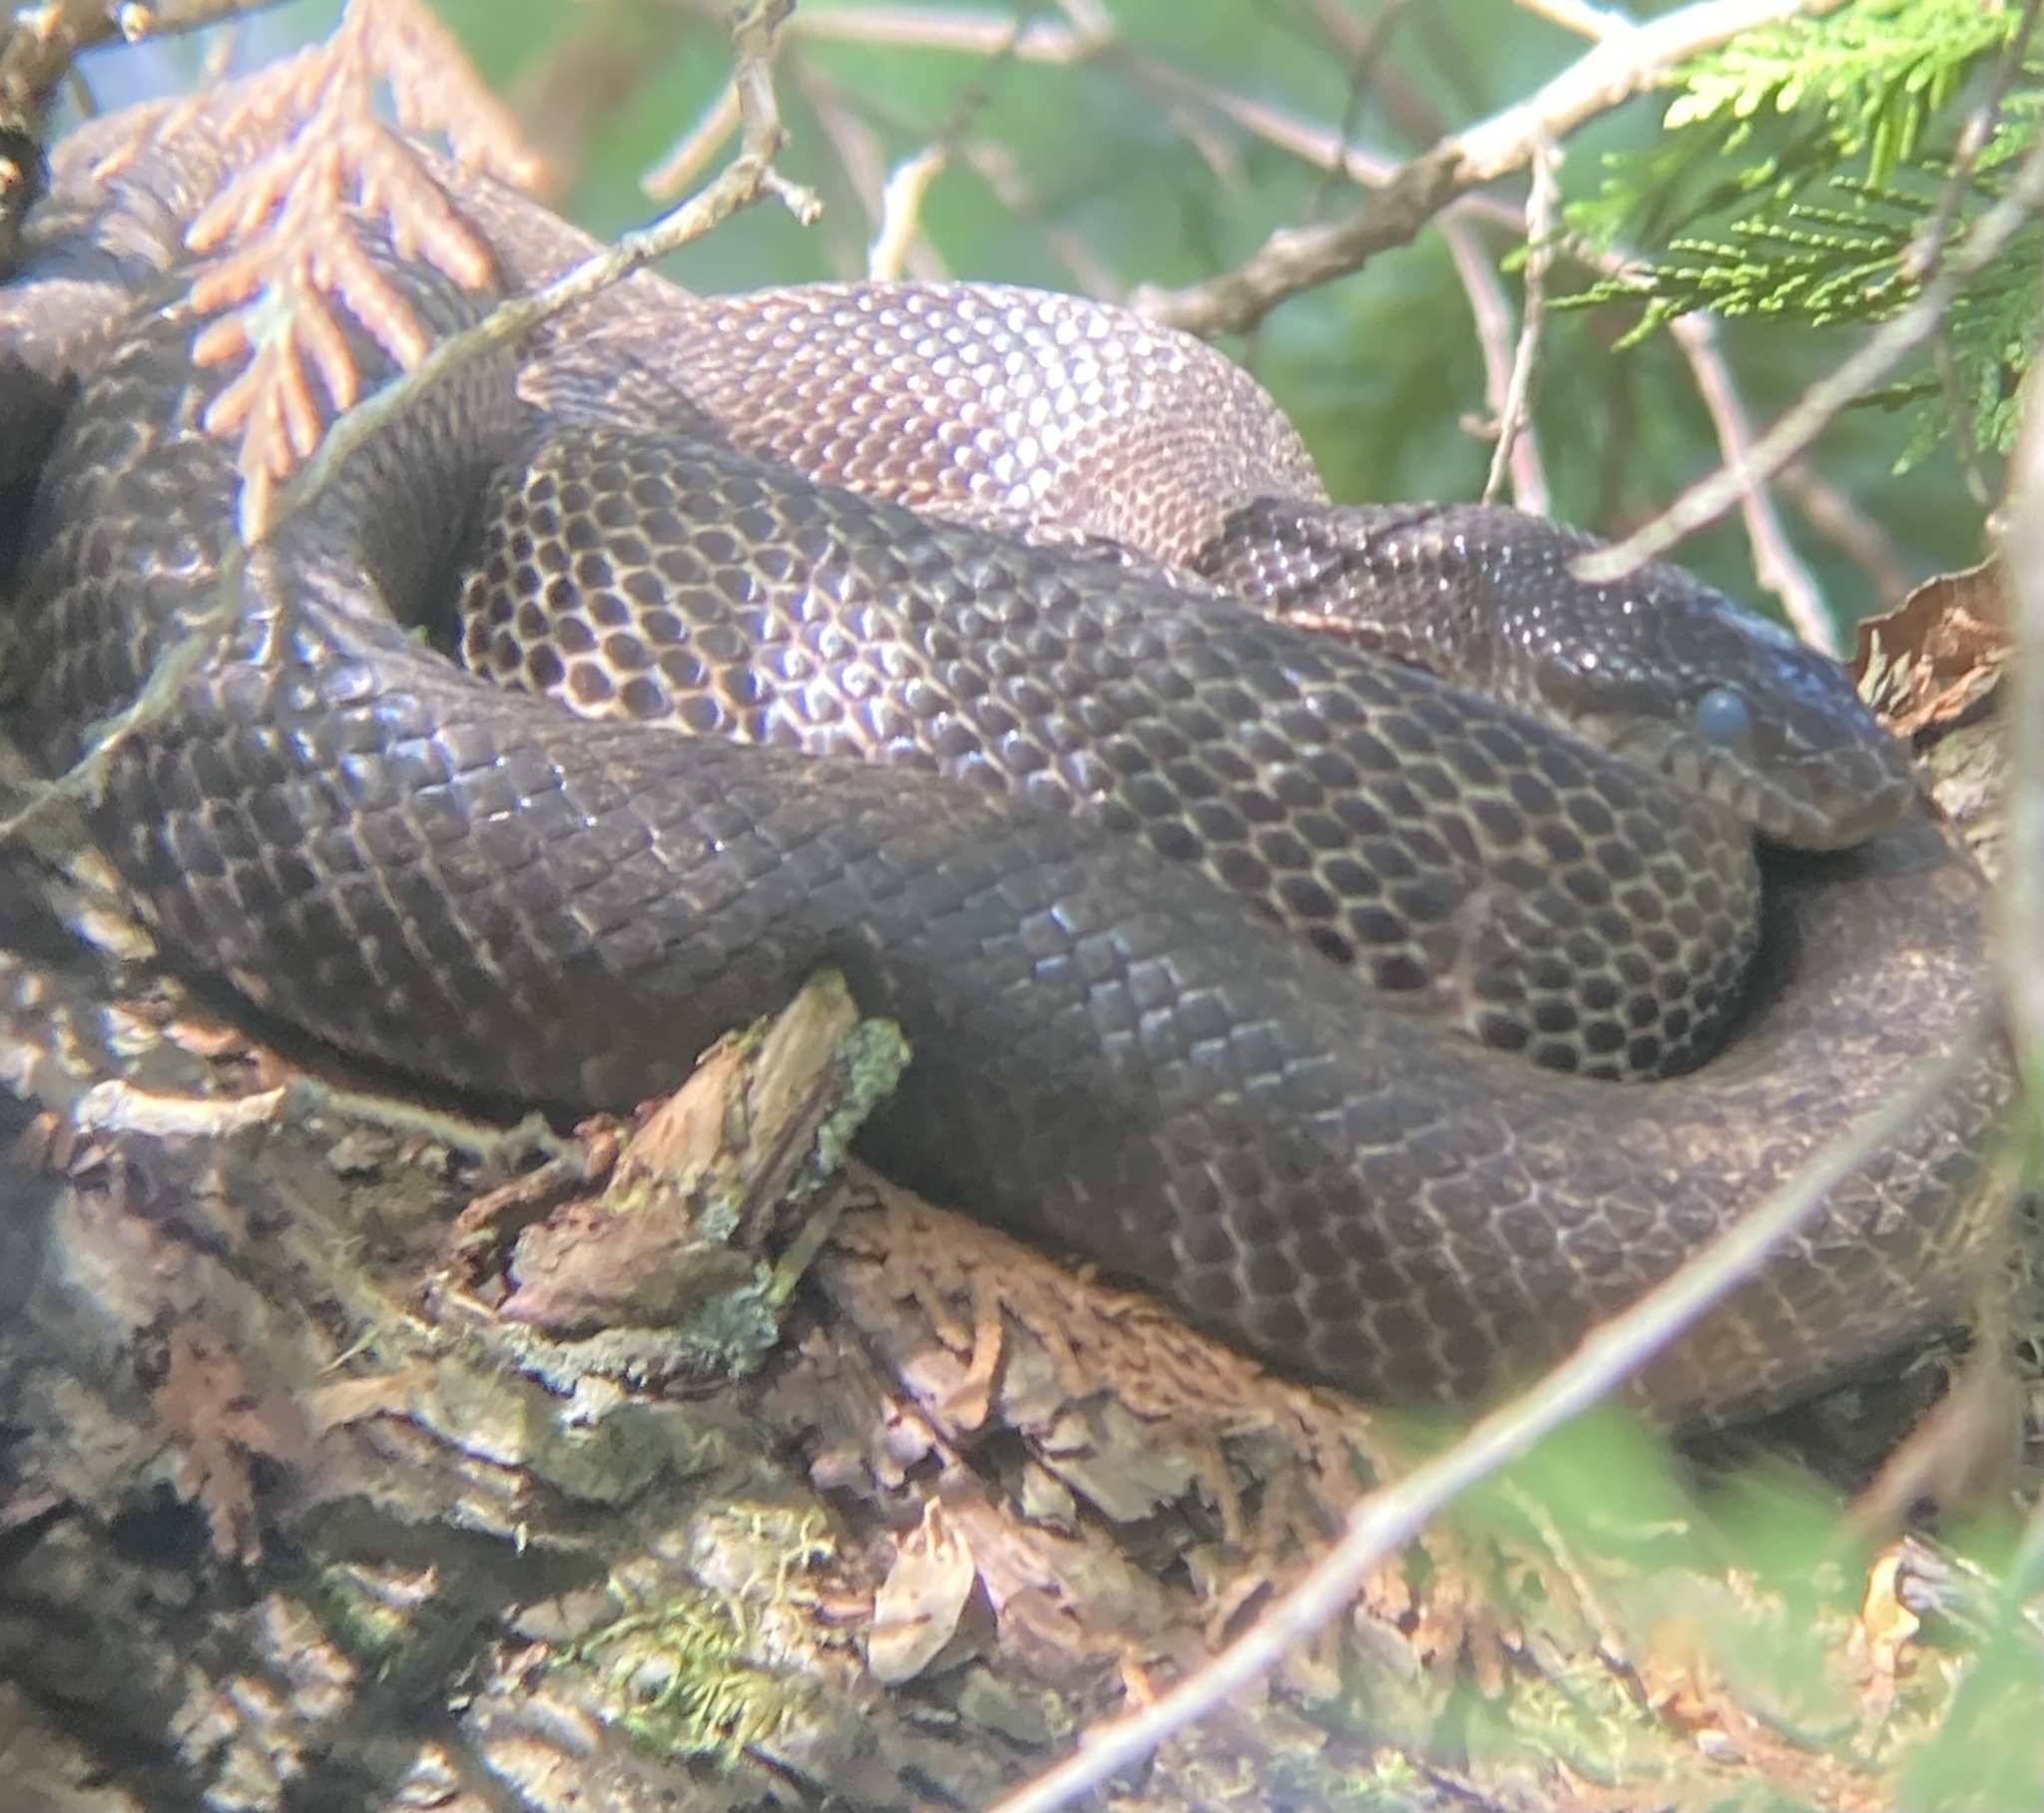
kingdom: Animalia
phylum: Chordata
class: Squamata
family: Colubridae
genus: Pantherophis
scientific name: Pantherophis spiloides
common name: Gray rat snake
